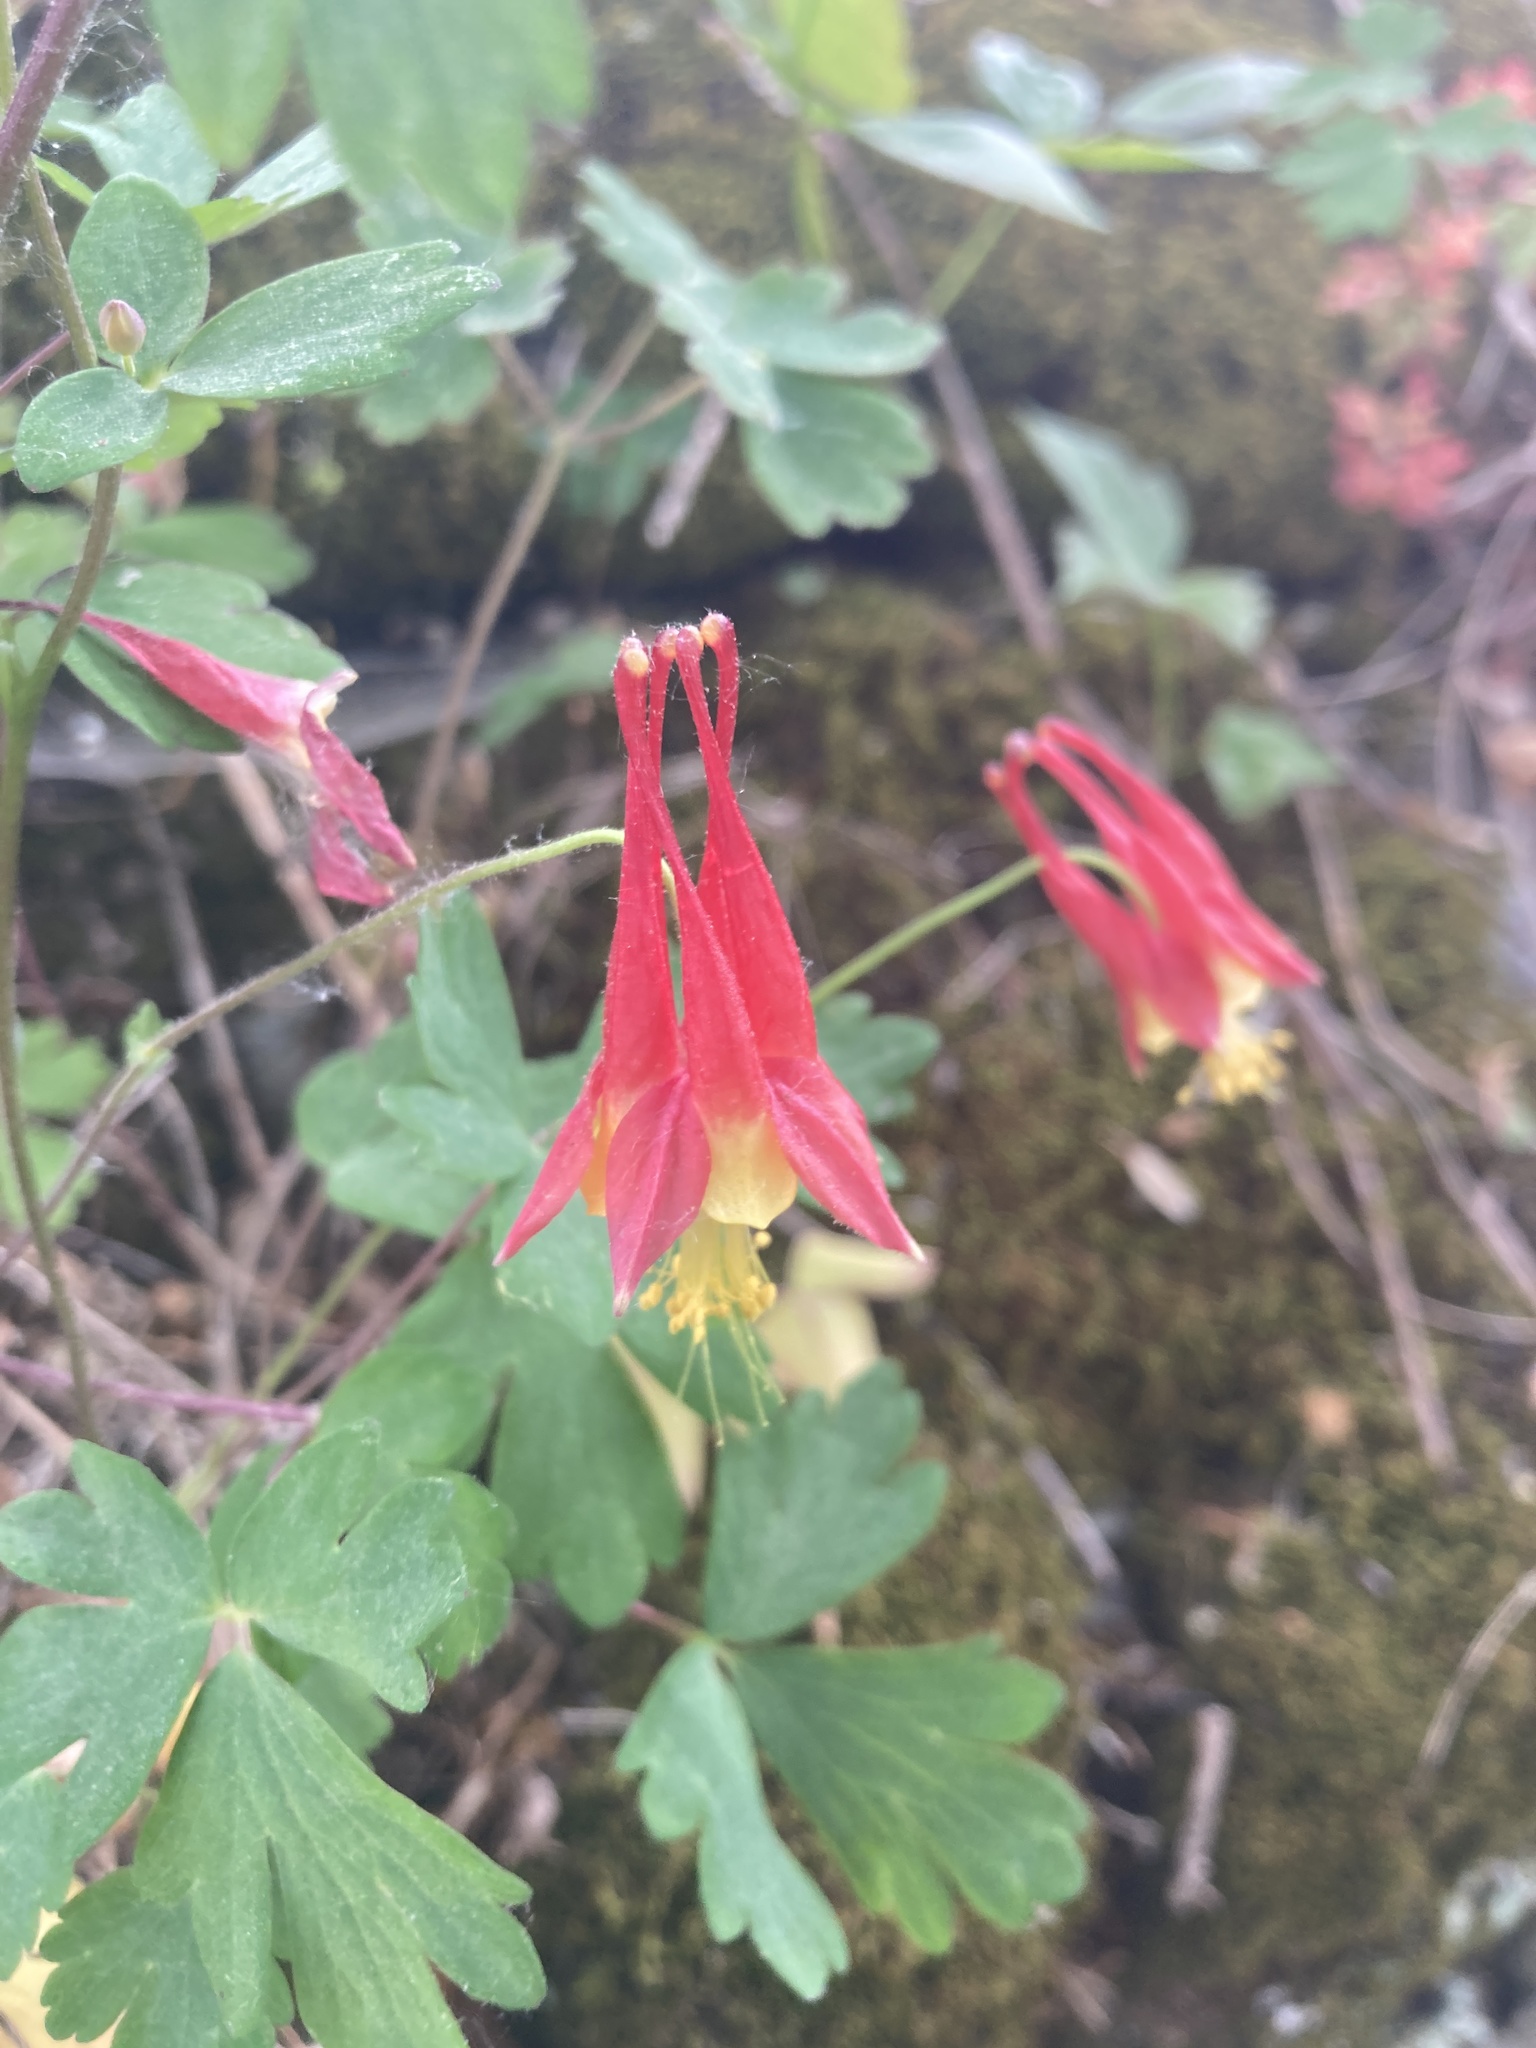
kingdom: Plantae
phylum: Tracheophyta
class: Magnoliopsida
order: Ranunculales
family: Ranunculaceae
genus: Aquilegia
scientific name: Aquilegia canadensis
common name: American columbine
